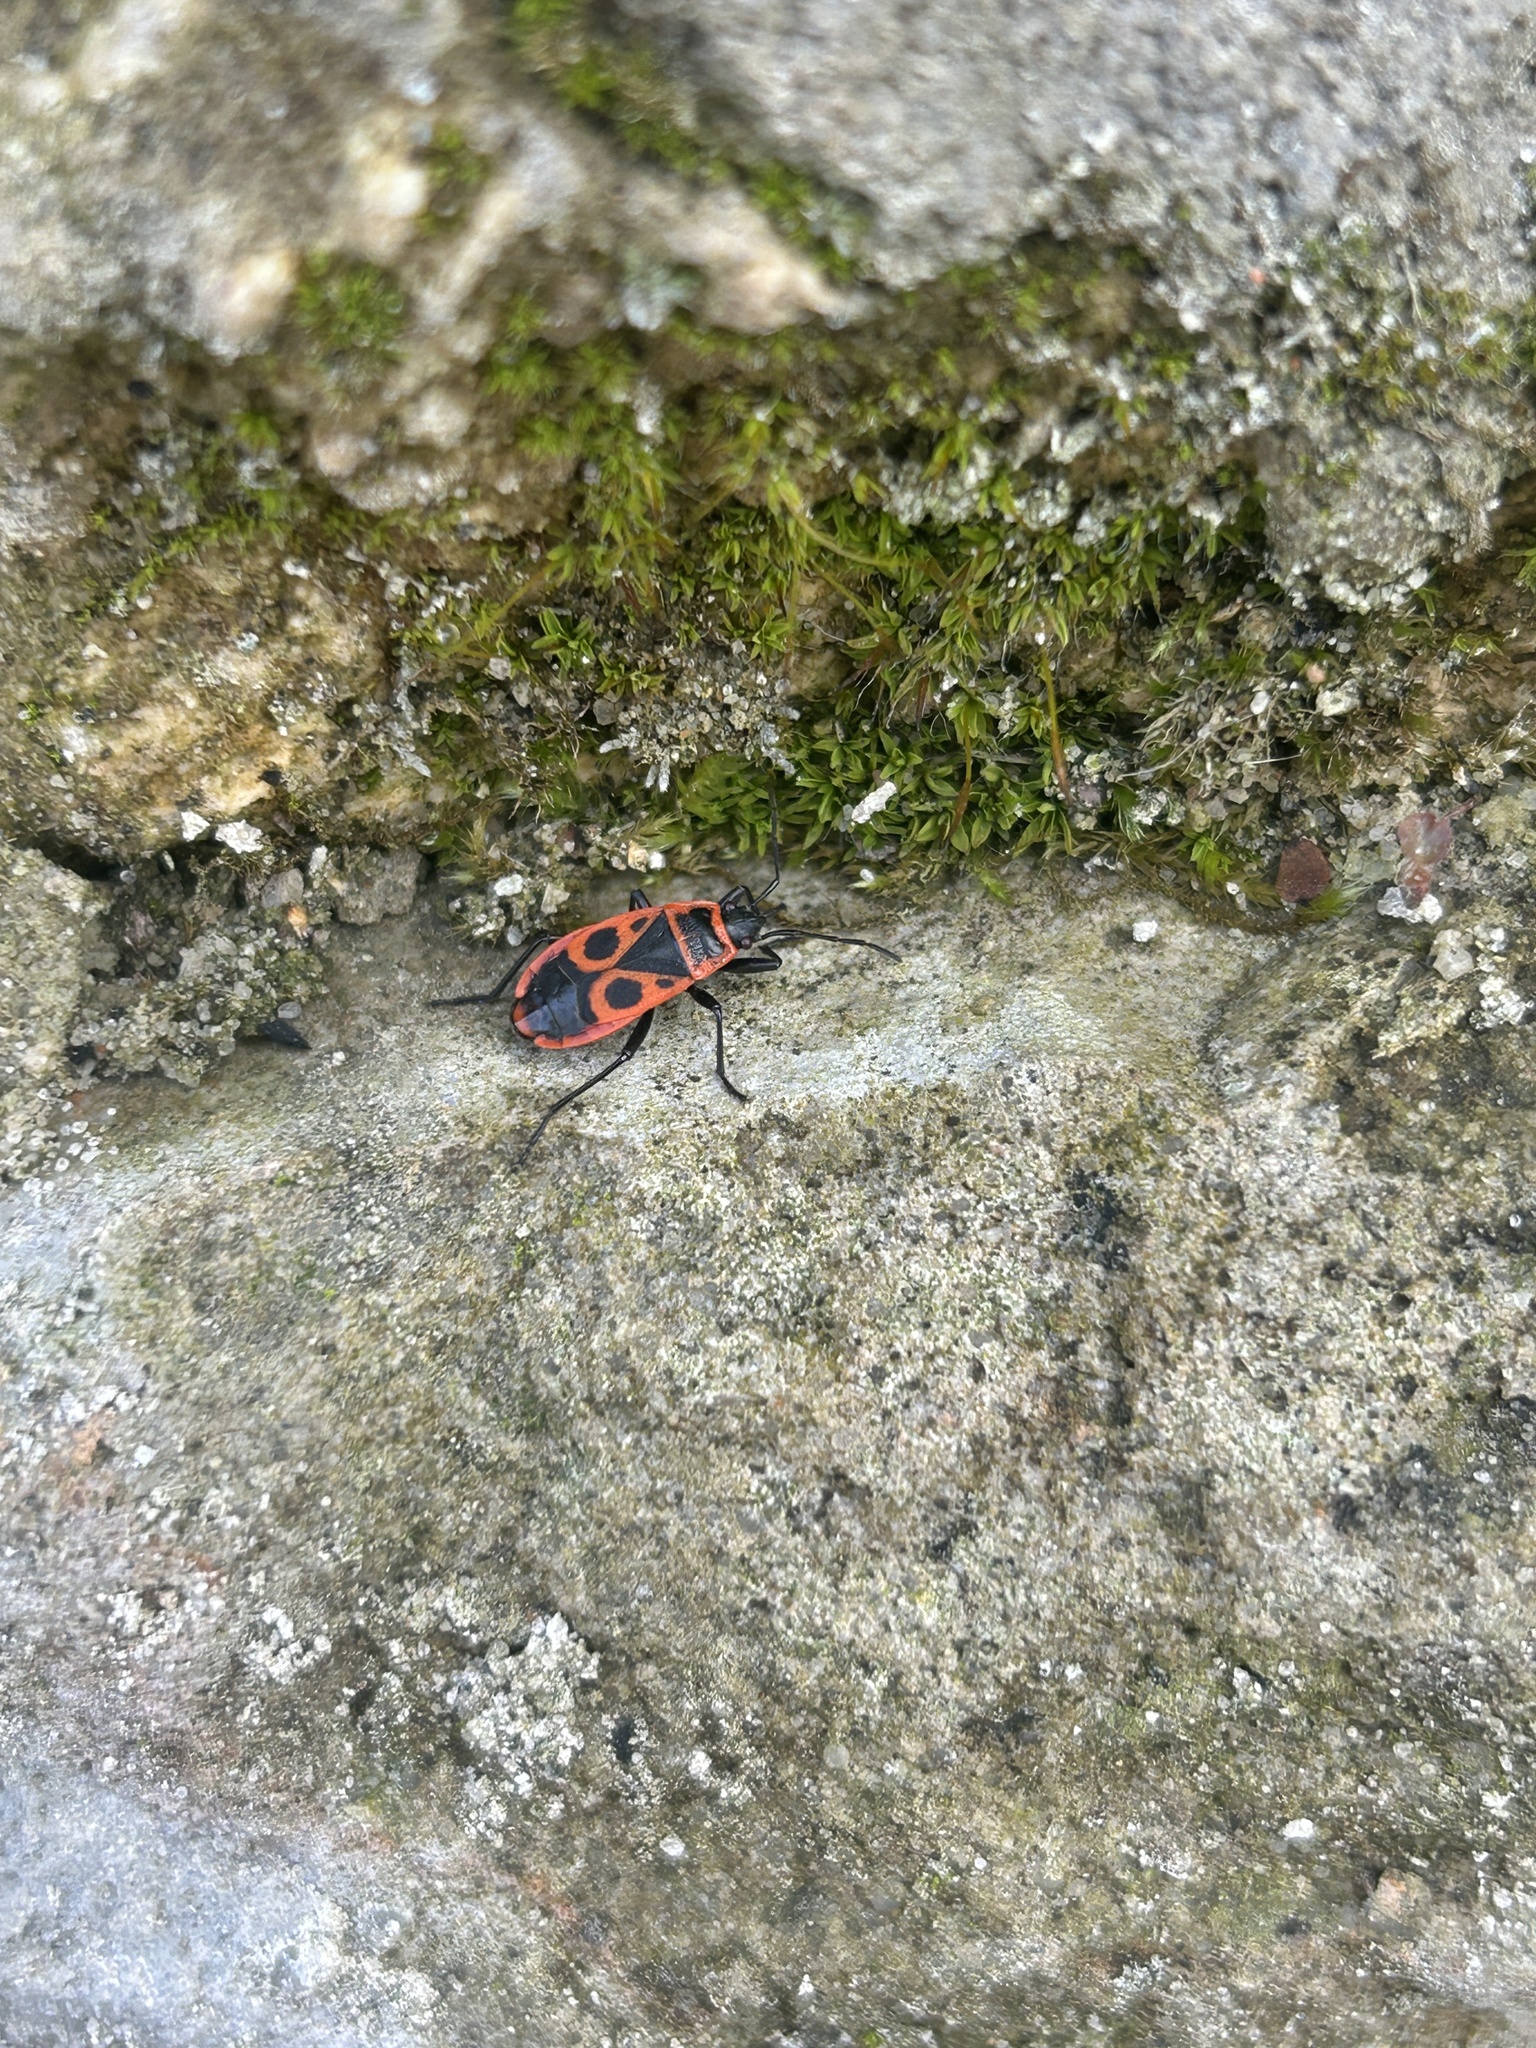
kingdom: Animalia
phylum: Arthropoda
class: Insecta
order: Hemiptera
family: Pyrrhocoridae
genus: Pyrrhocoris
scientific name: Pyrrhocoris apterus
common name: Firebug
